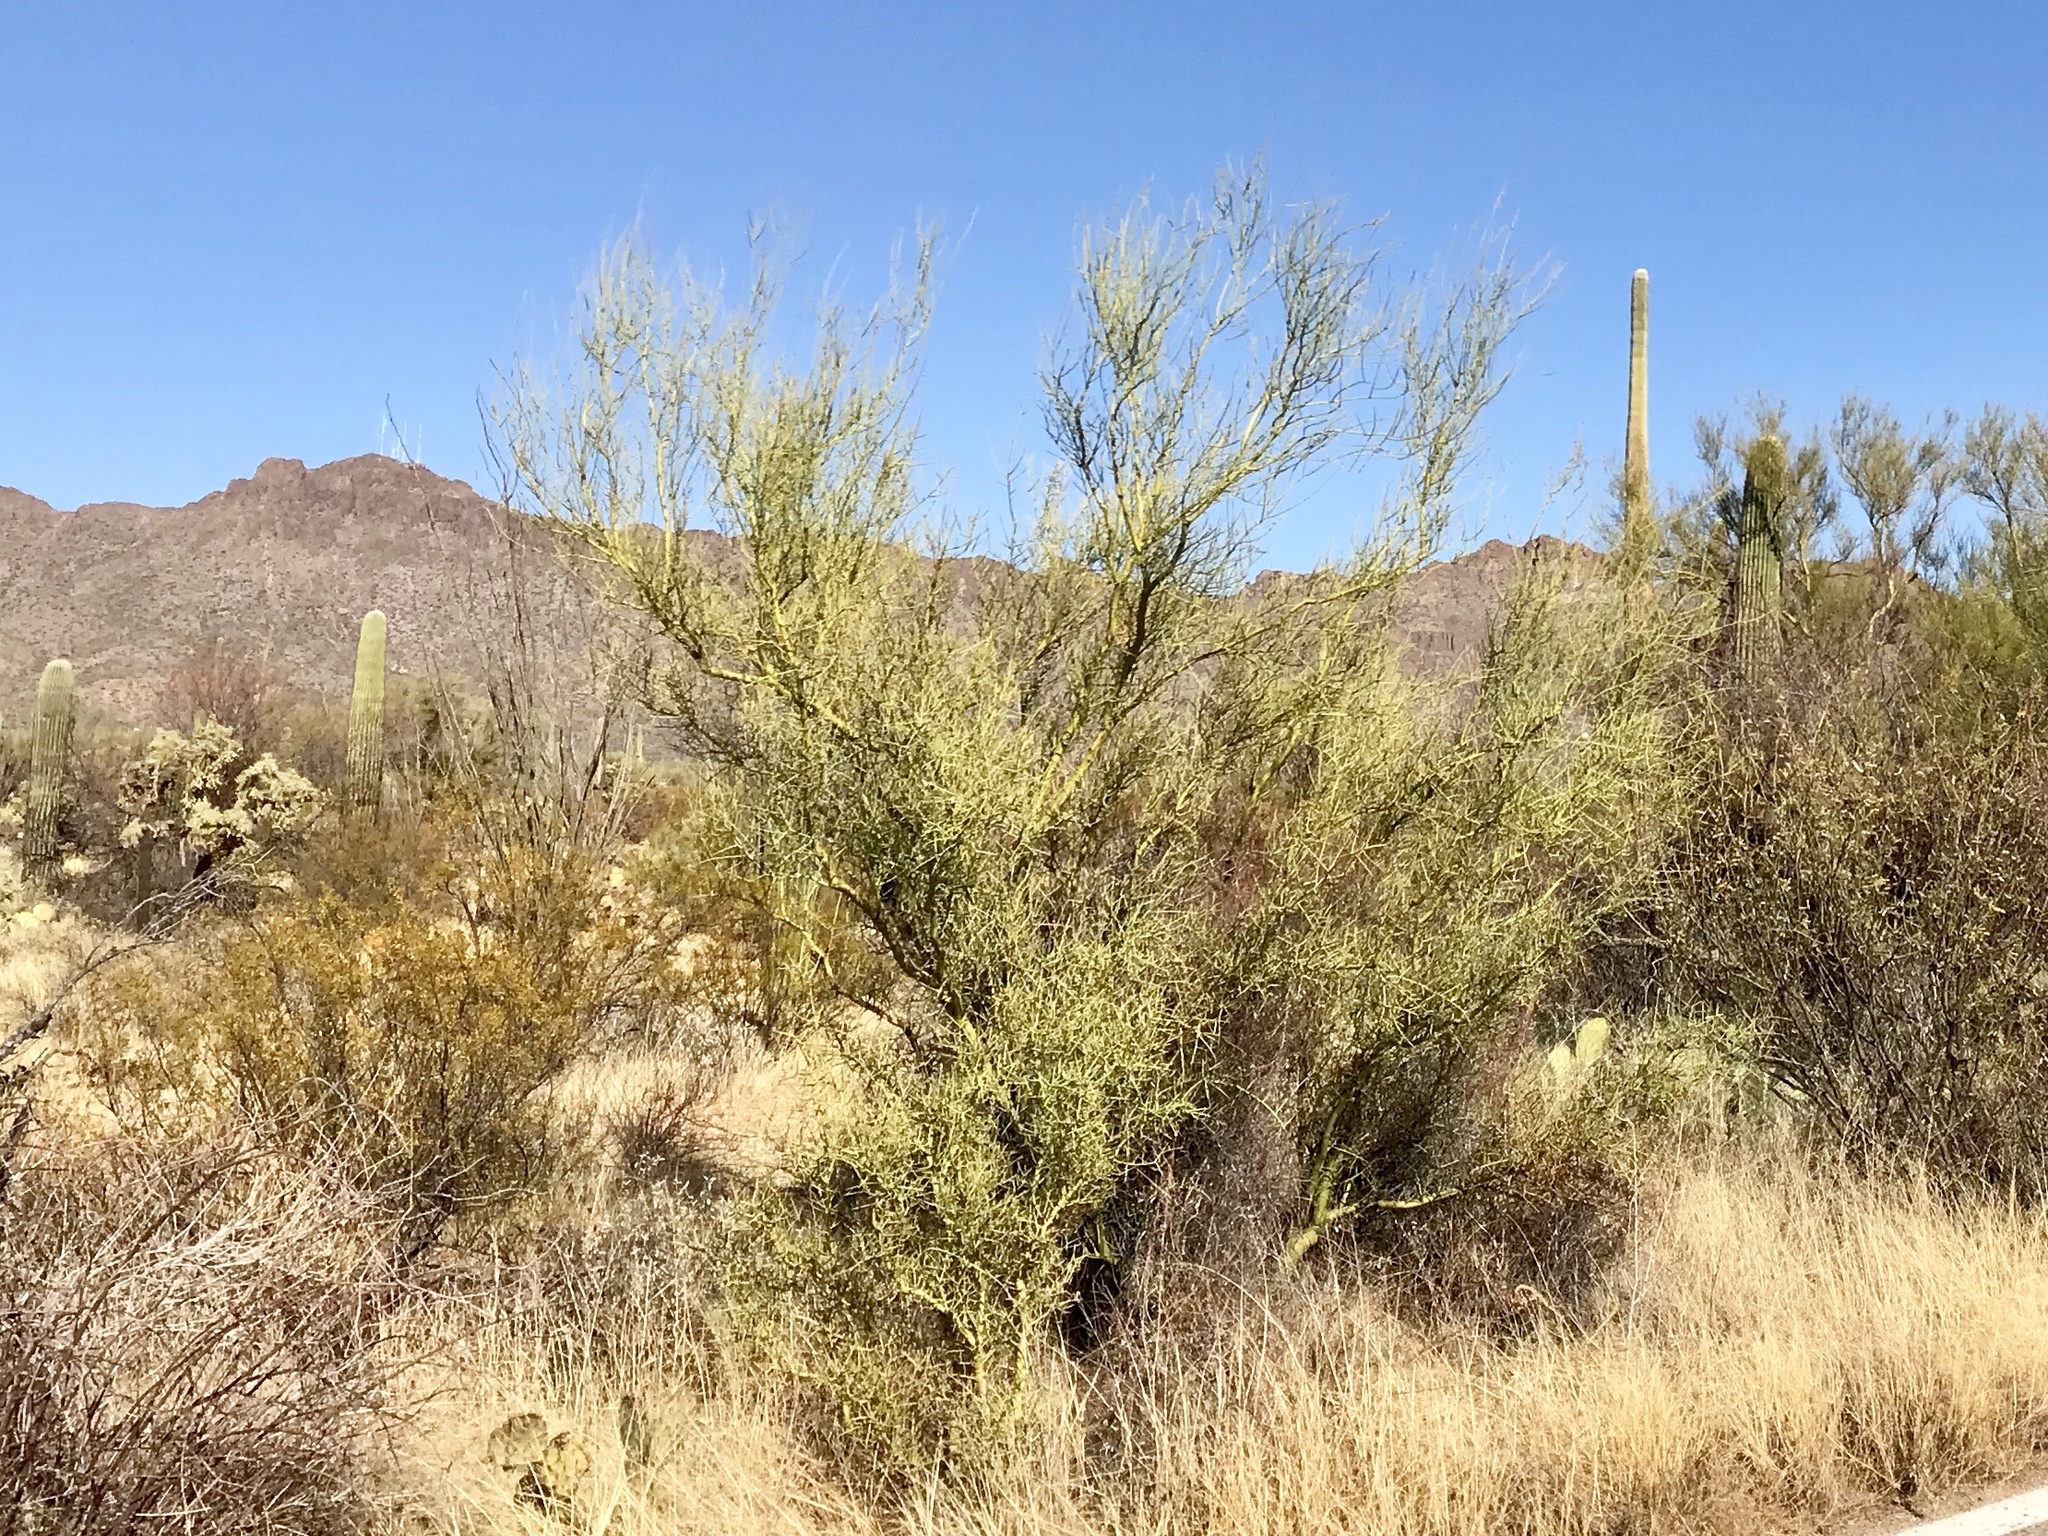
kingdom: Plantae
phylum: Tracheophyta
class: Magnoliopsida
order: Fabales
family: Fabaceae
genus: Parkinsonia
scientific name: Parkinsonia microphylla
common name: Yellow paloverde
